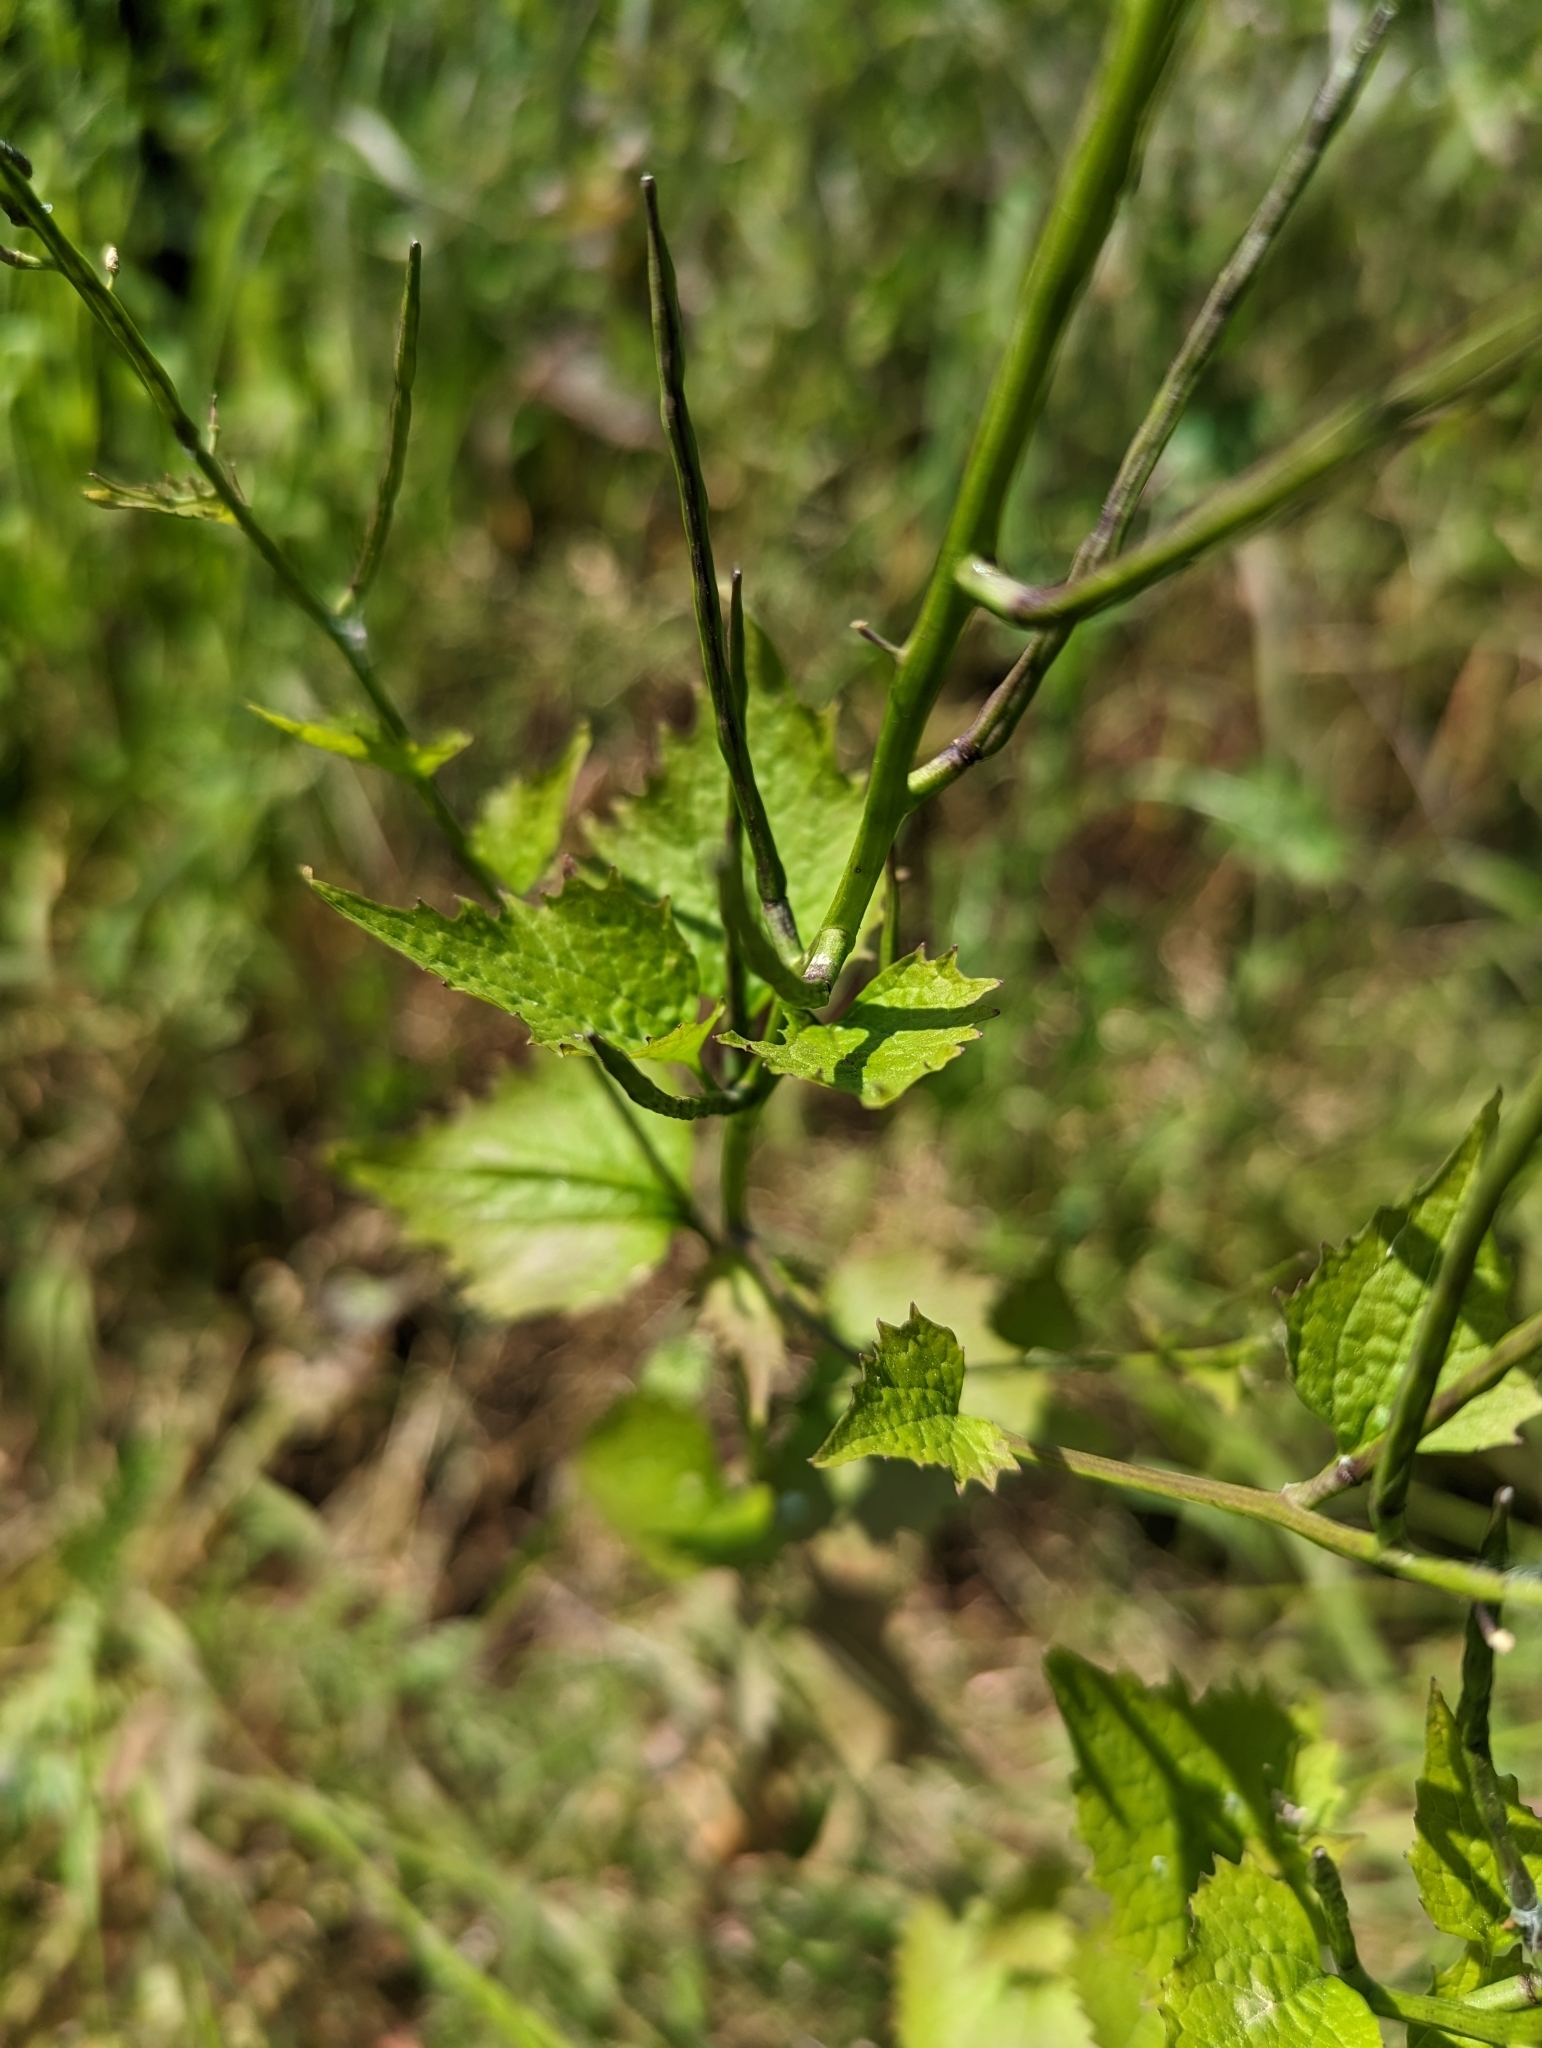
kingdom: Plantae
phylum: Tracheophyta
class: Magnoliopsida
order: Brassicales
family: Brassicaceae
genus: Alliaria
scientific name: Alliaria petiolata
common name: Garlic mustard
